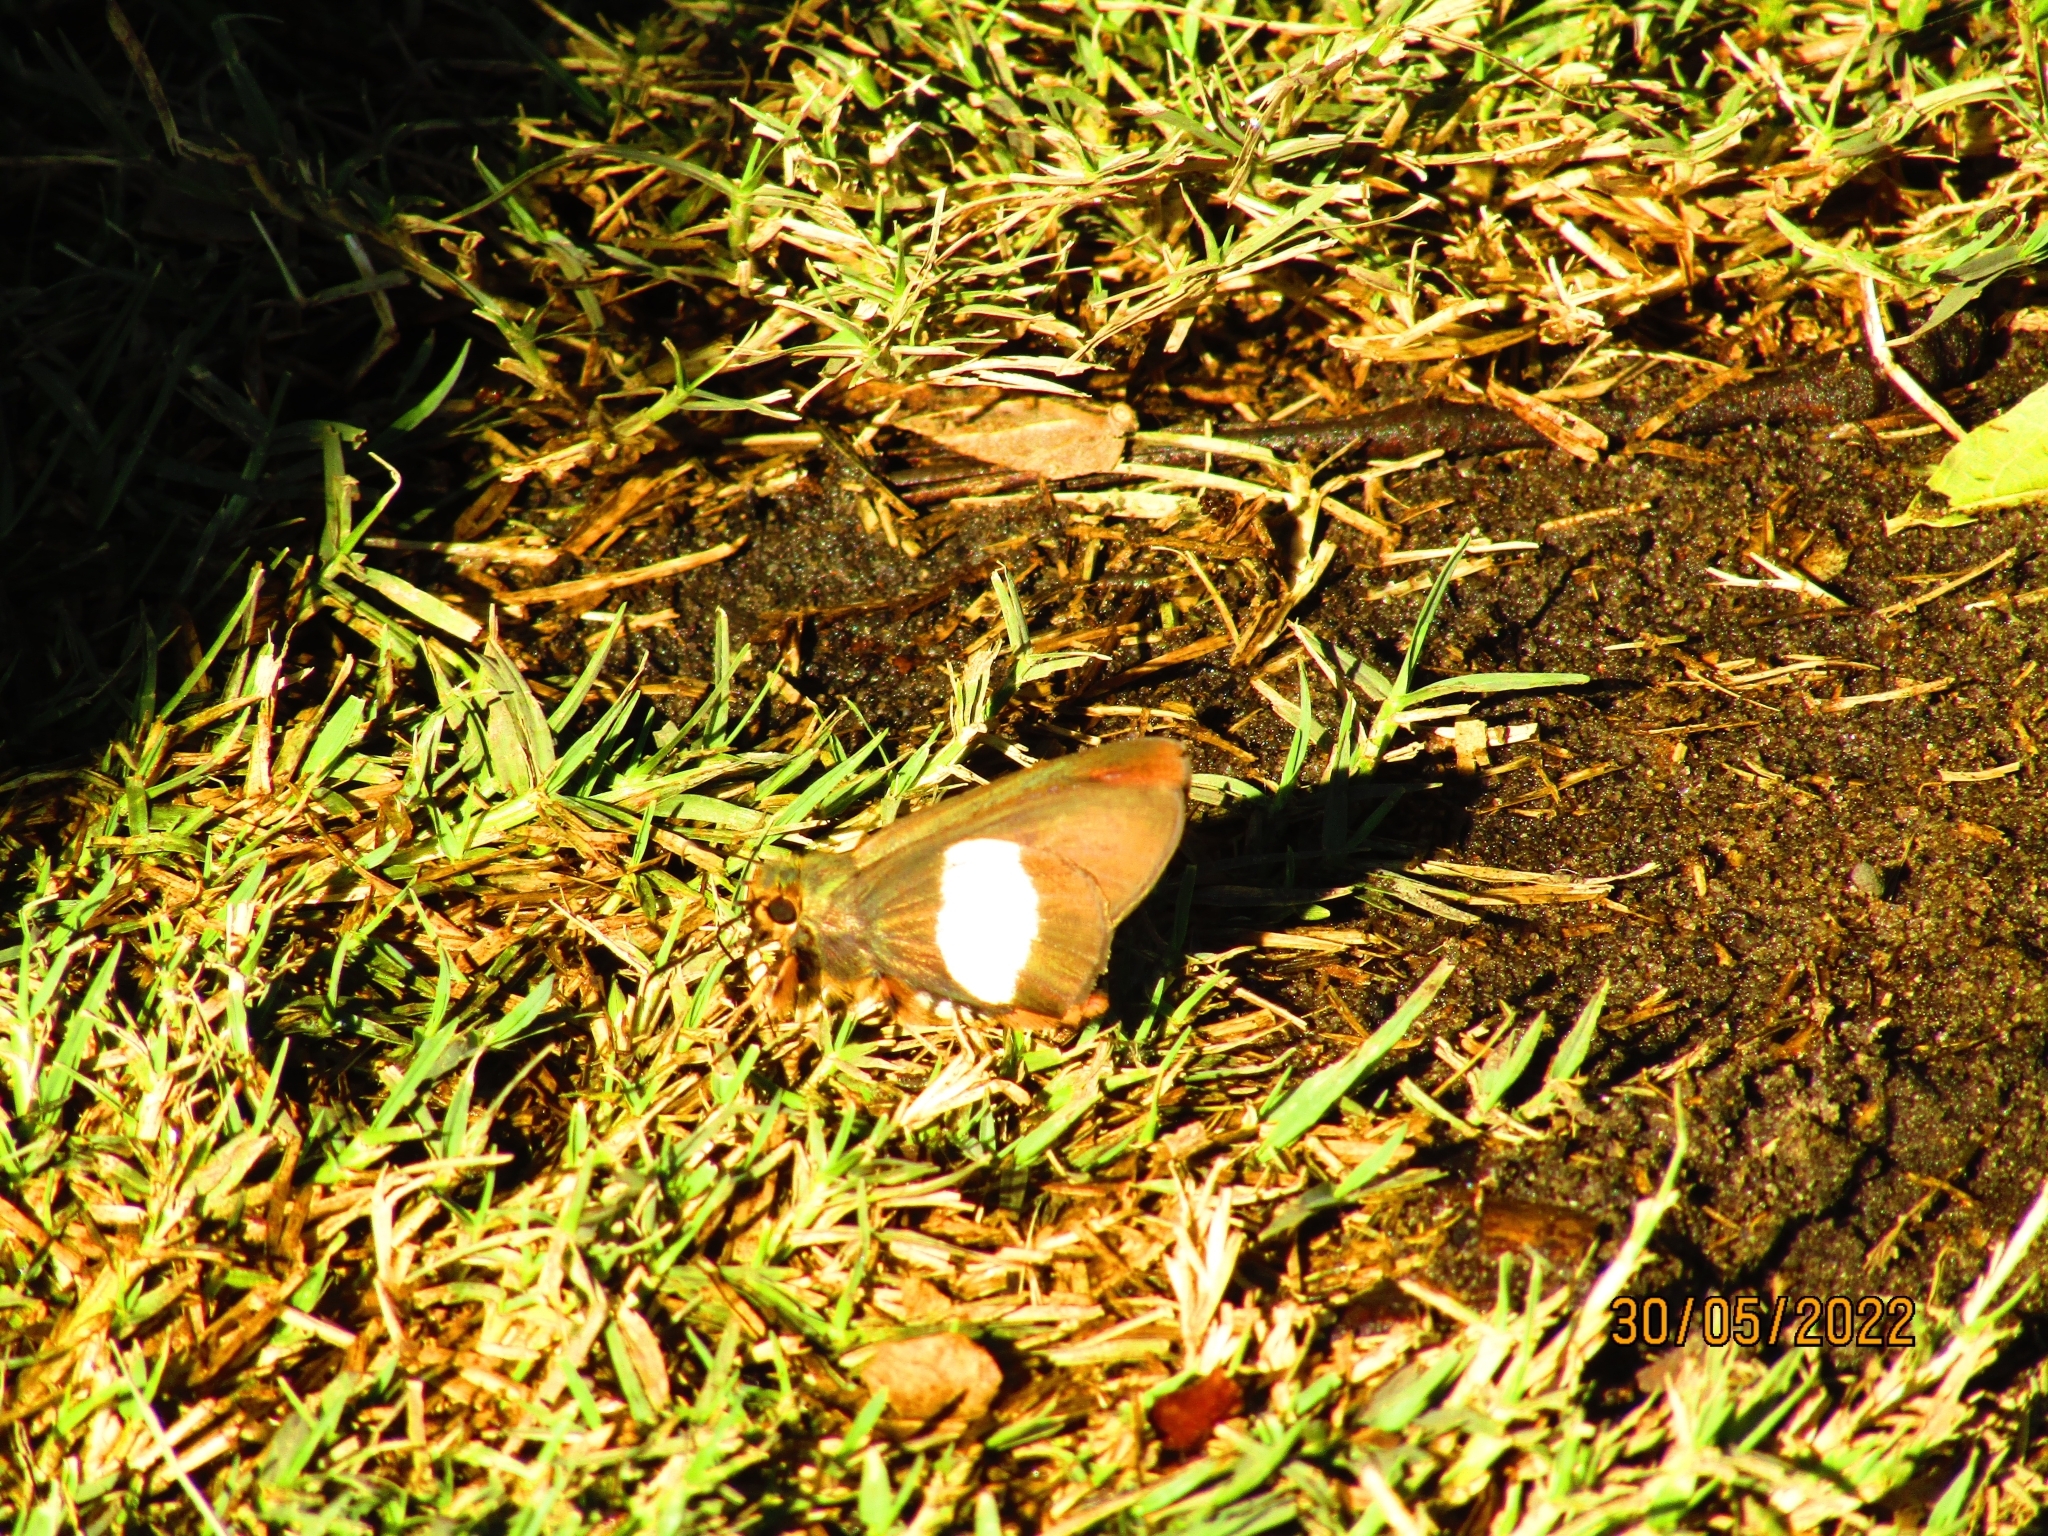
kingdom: Animalia
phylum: Arthropoda
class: Insecta
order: Lepidoptera
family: Hesperiidae
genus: Coeliades
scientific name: Coeliades forestan
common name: Striped policeman
